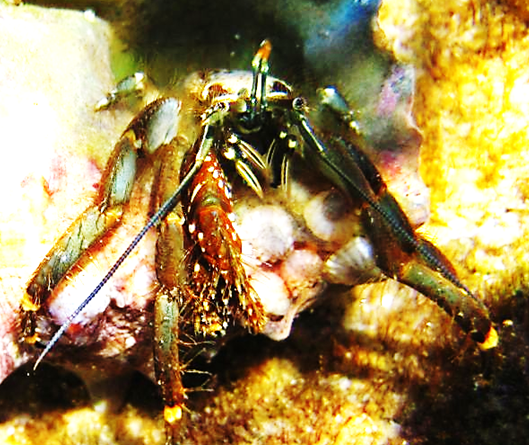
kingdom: Animalia
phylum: Arthropoda
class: Malacostraca
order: Decapoda
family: Diogenidae
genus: Clibanarius
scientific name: Clibanarius virescens
